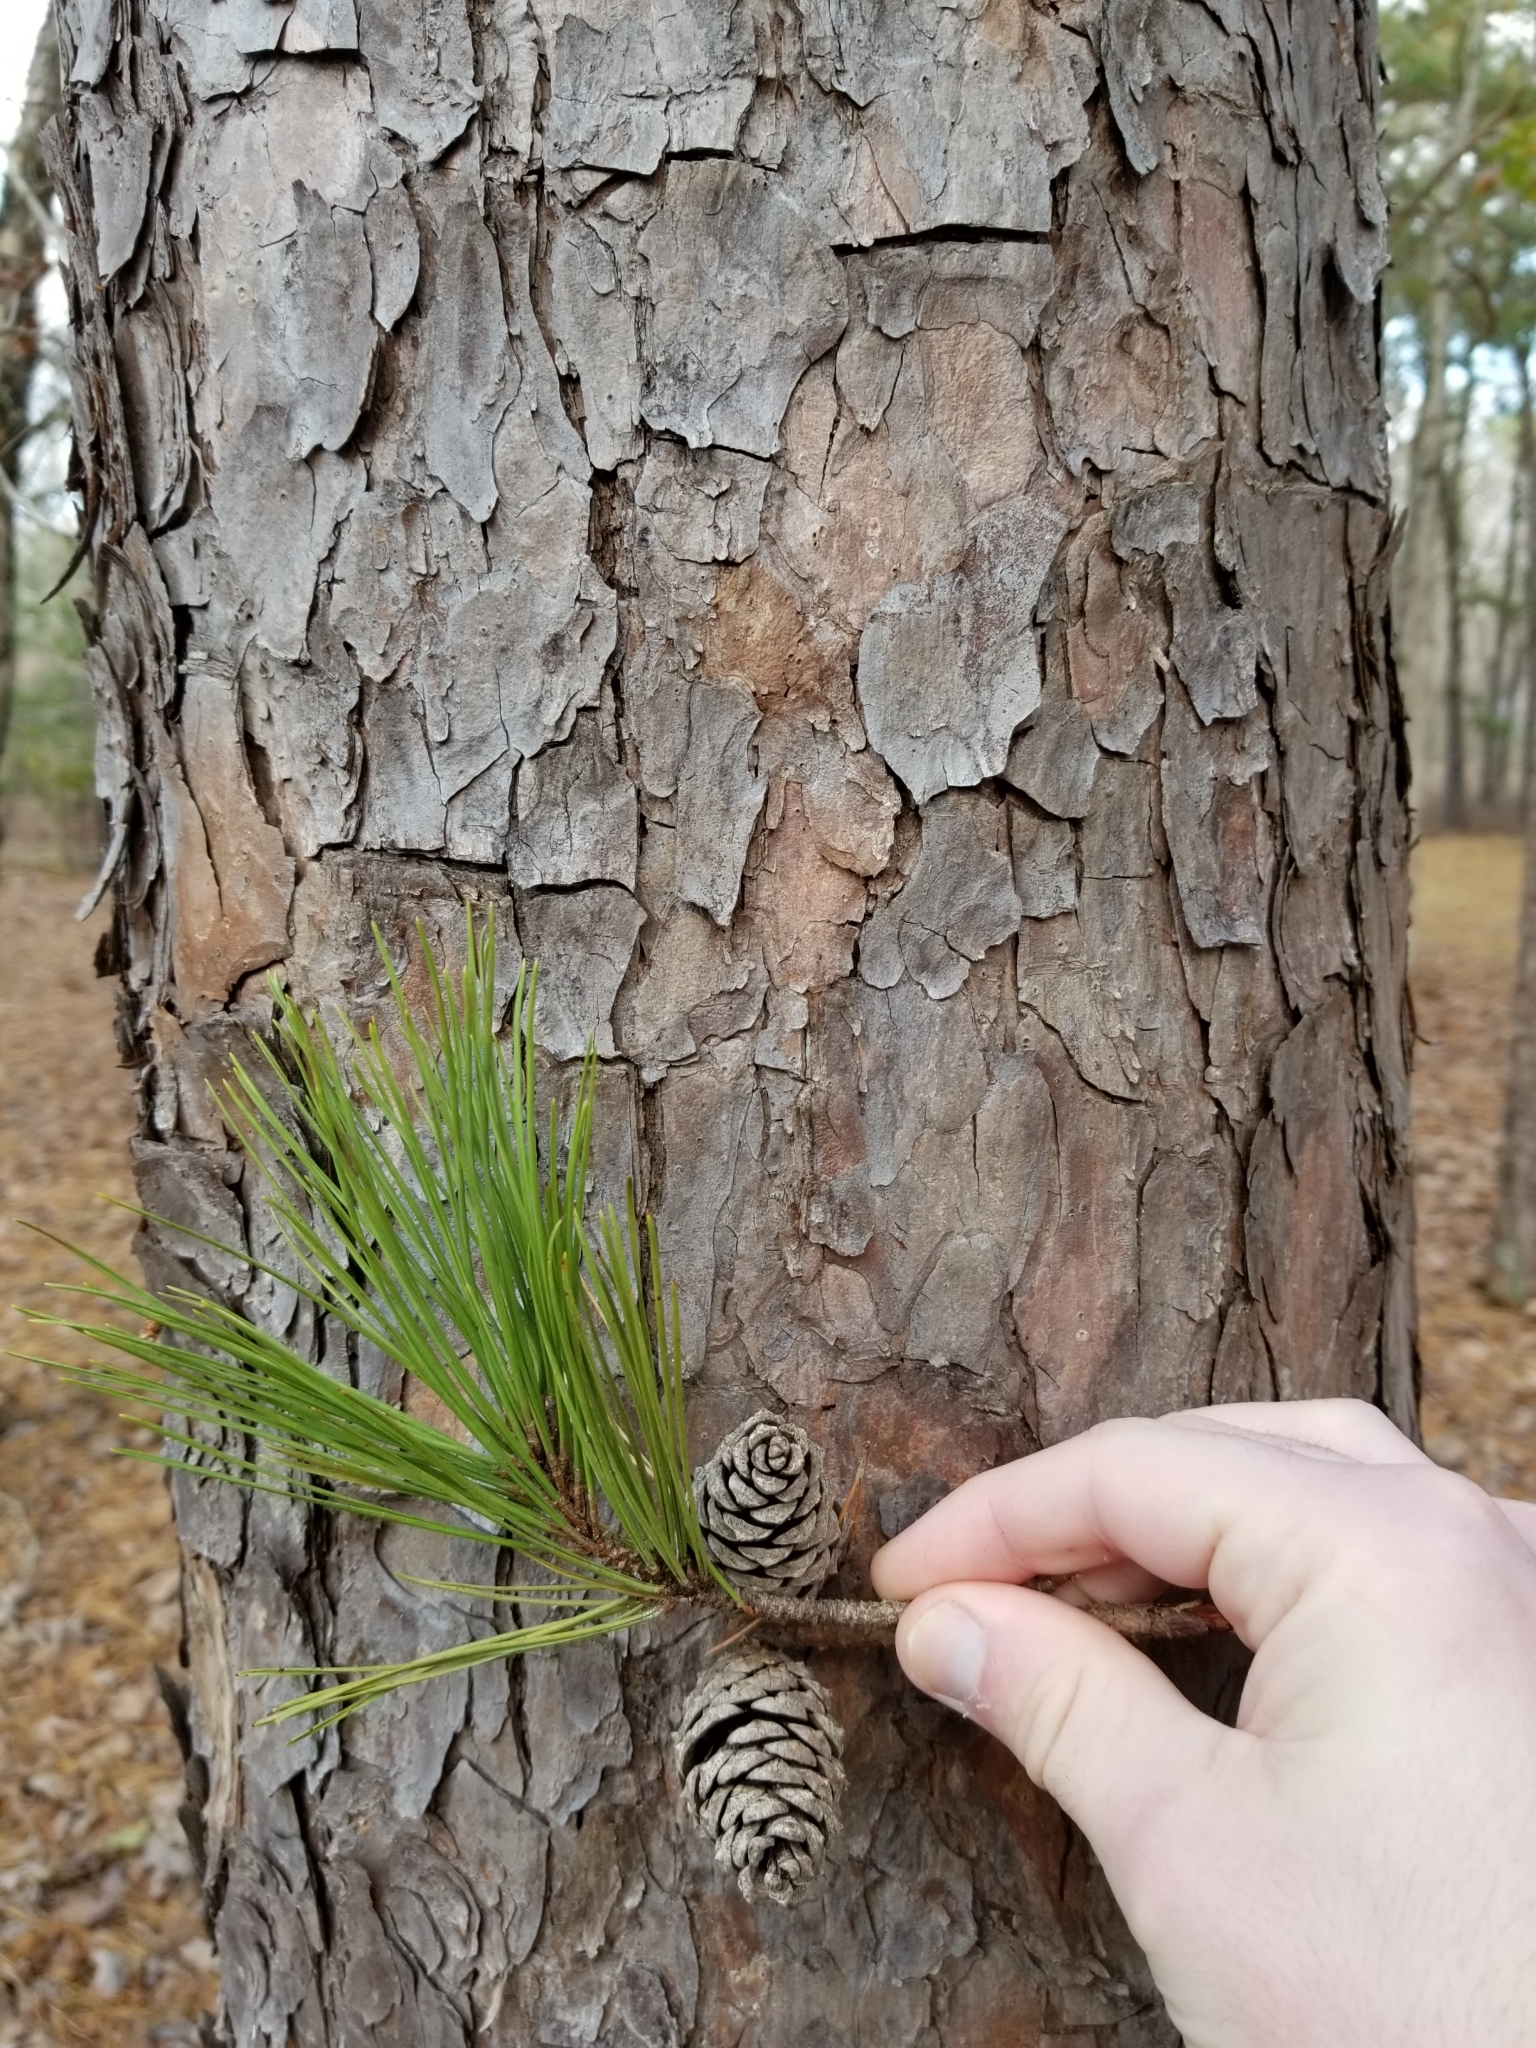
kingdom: Plantae
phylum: Tracheophyta
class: Pinopsida
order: Pinales
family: Pinaceae
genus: Pinus
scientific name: Pinus echinata
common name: Shortleaf pine
